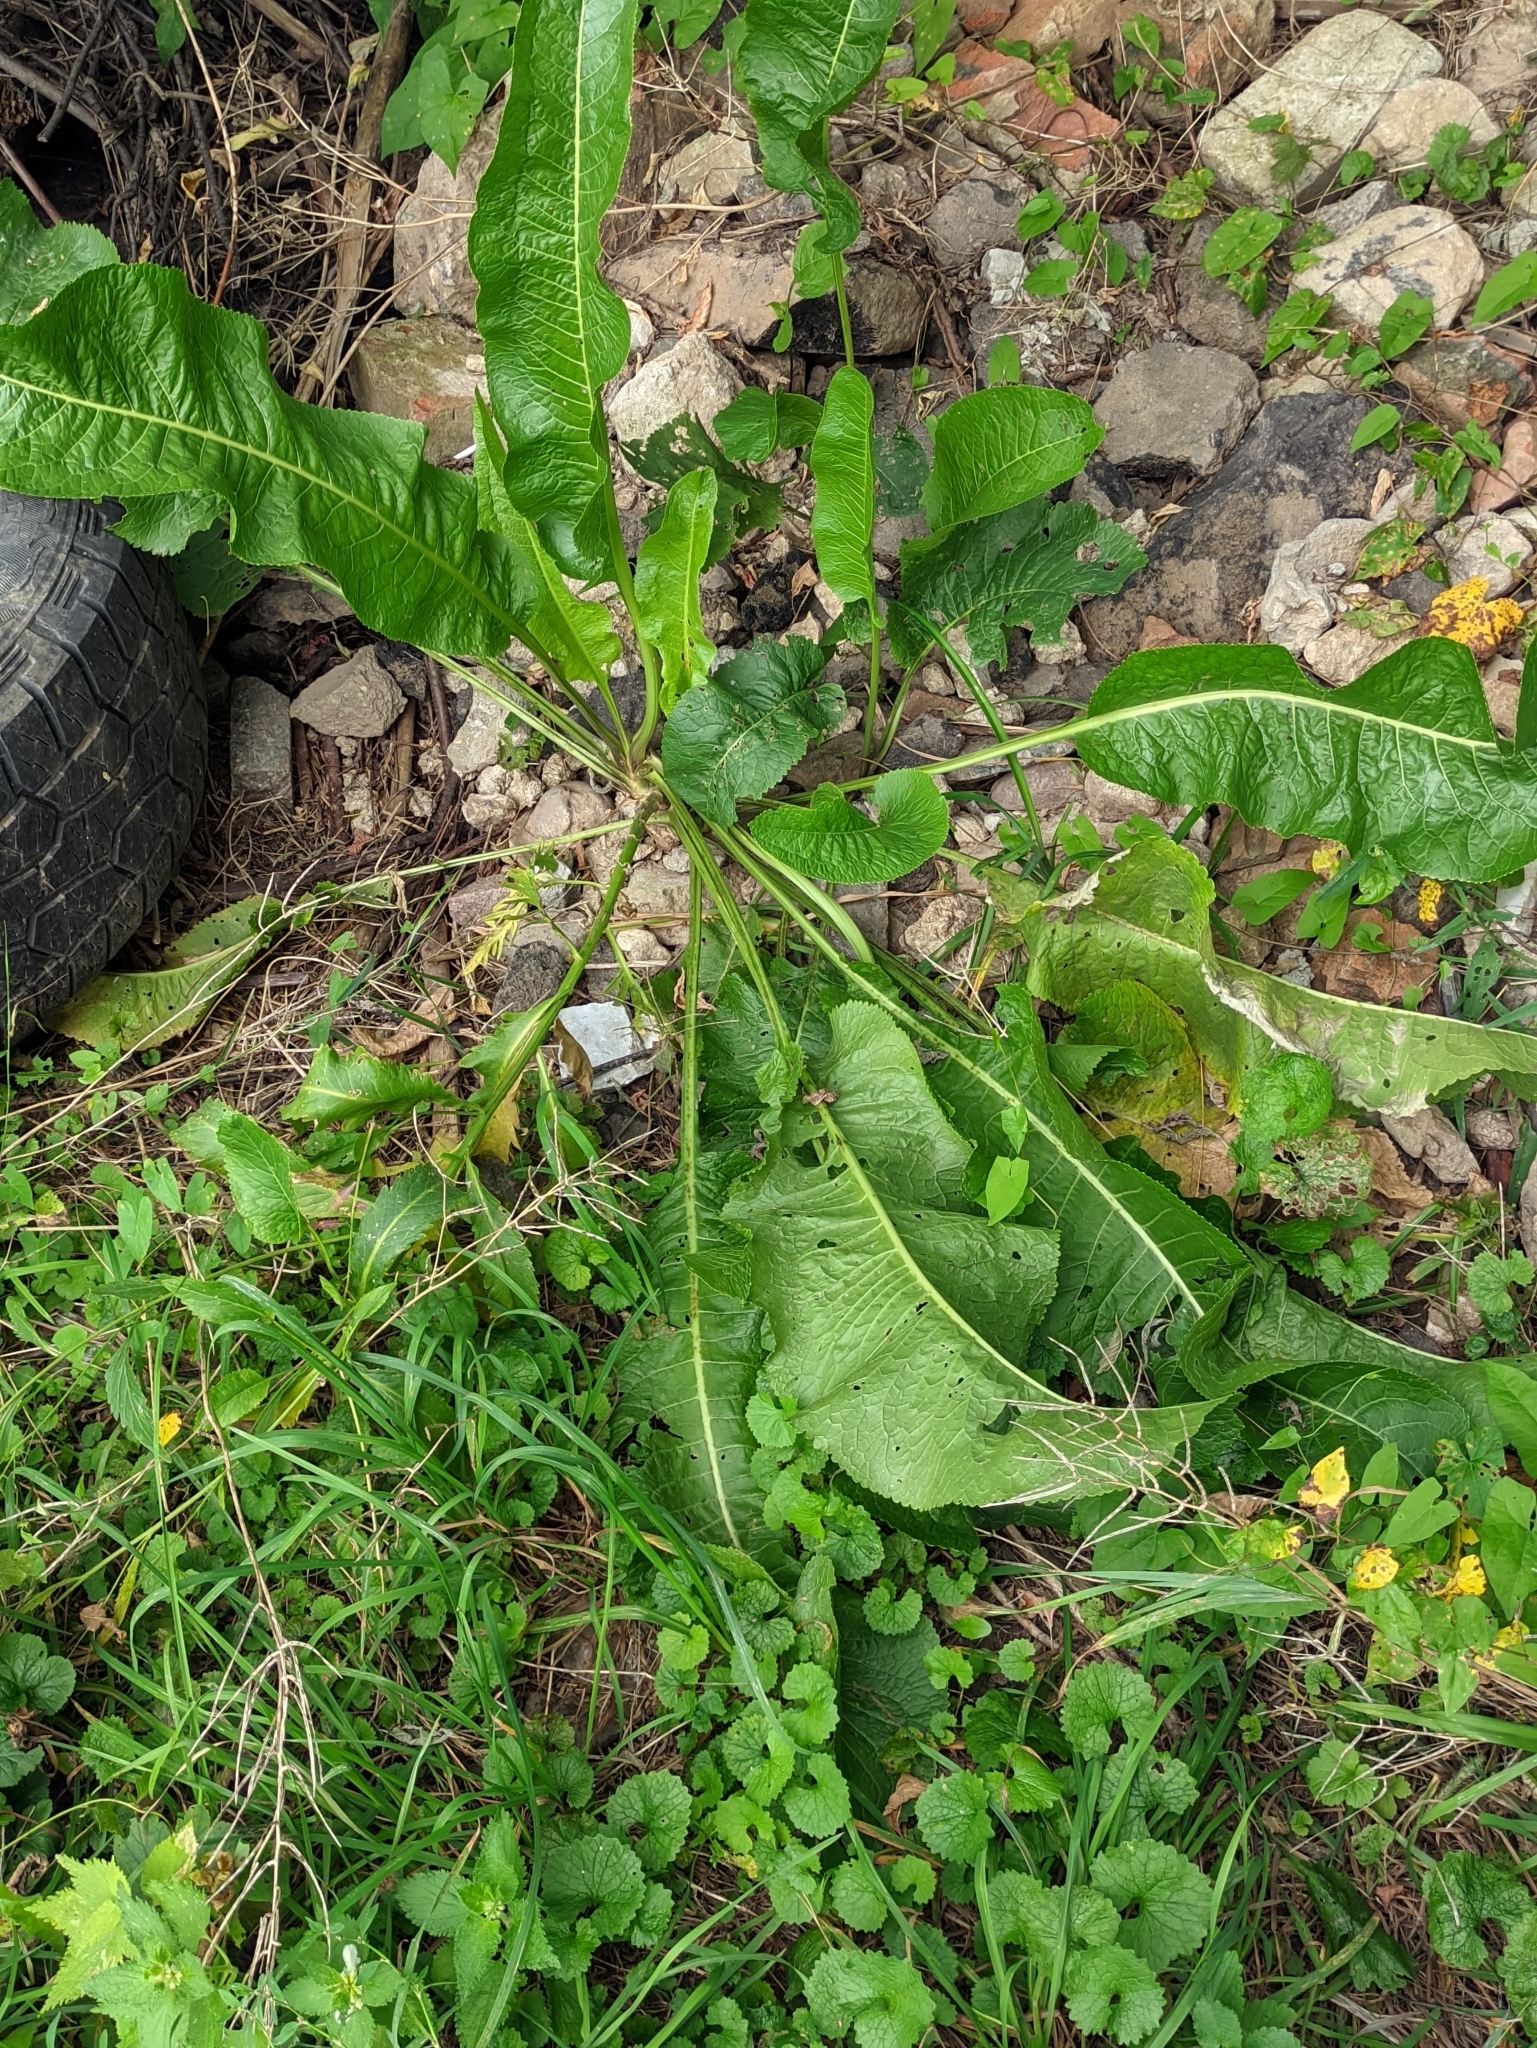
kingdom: Plantae
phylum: Tracheophyta
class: Magnoliopsida
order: Brassicales
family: Brassicaceae
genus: Armoracia
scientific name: Armoracia rusticana
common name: Horseradish
